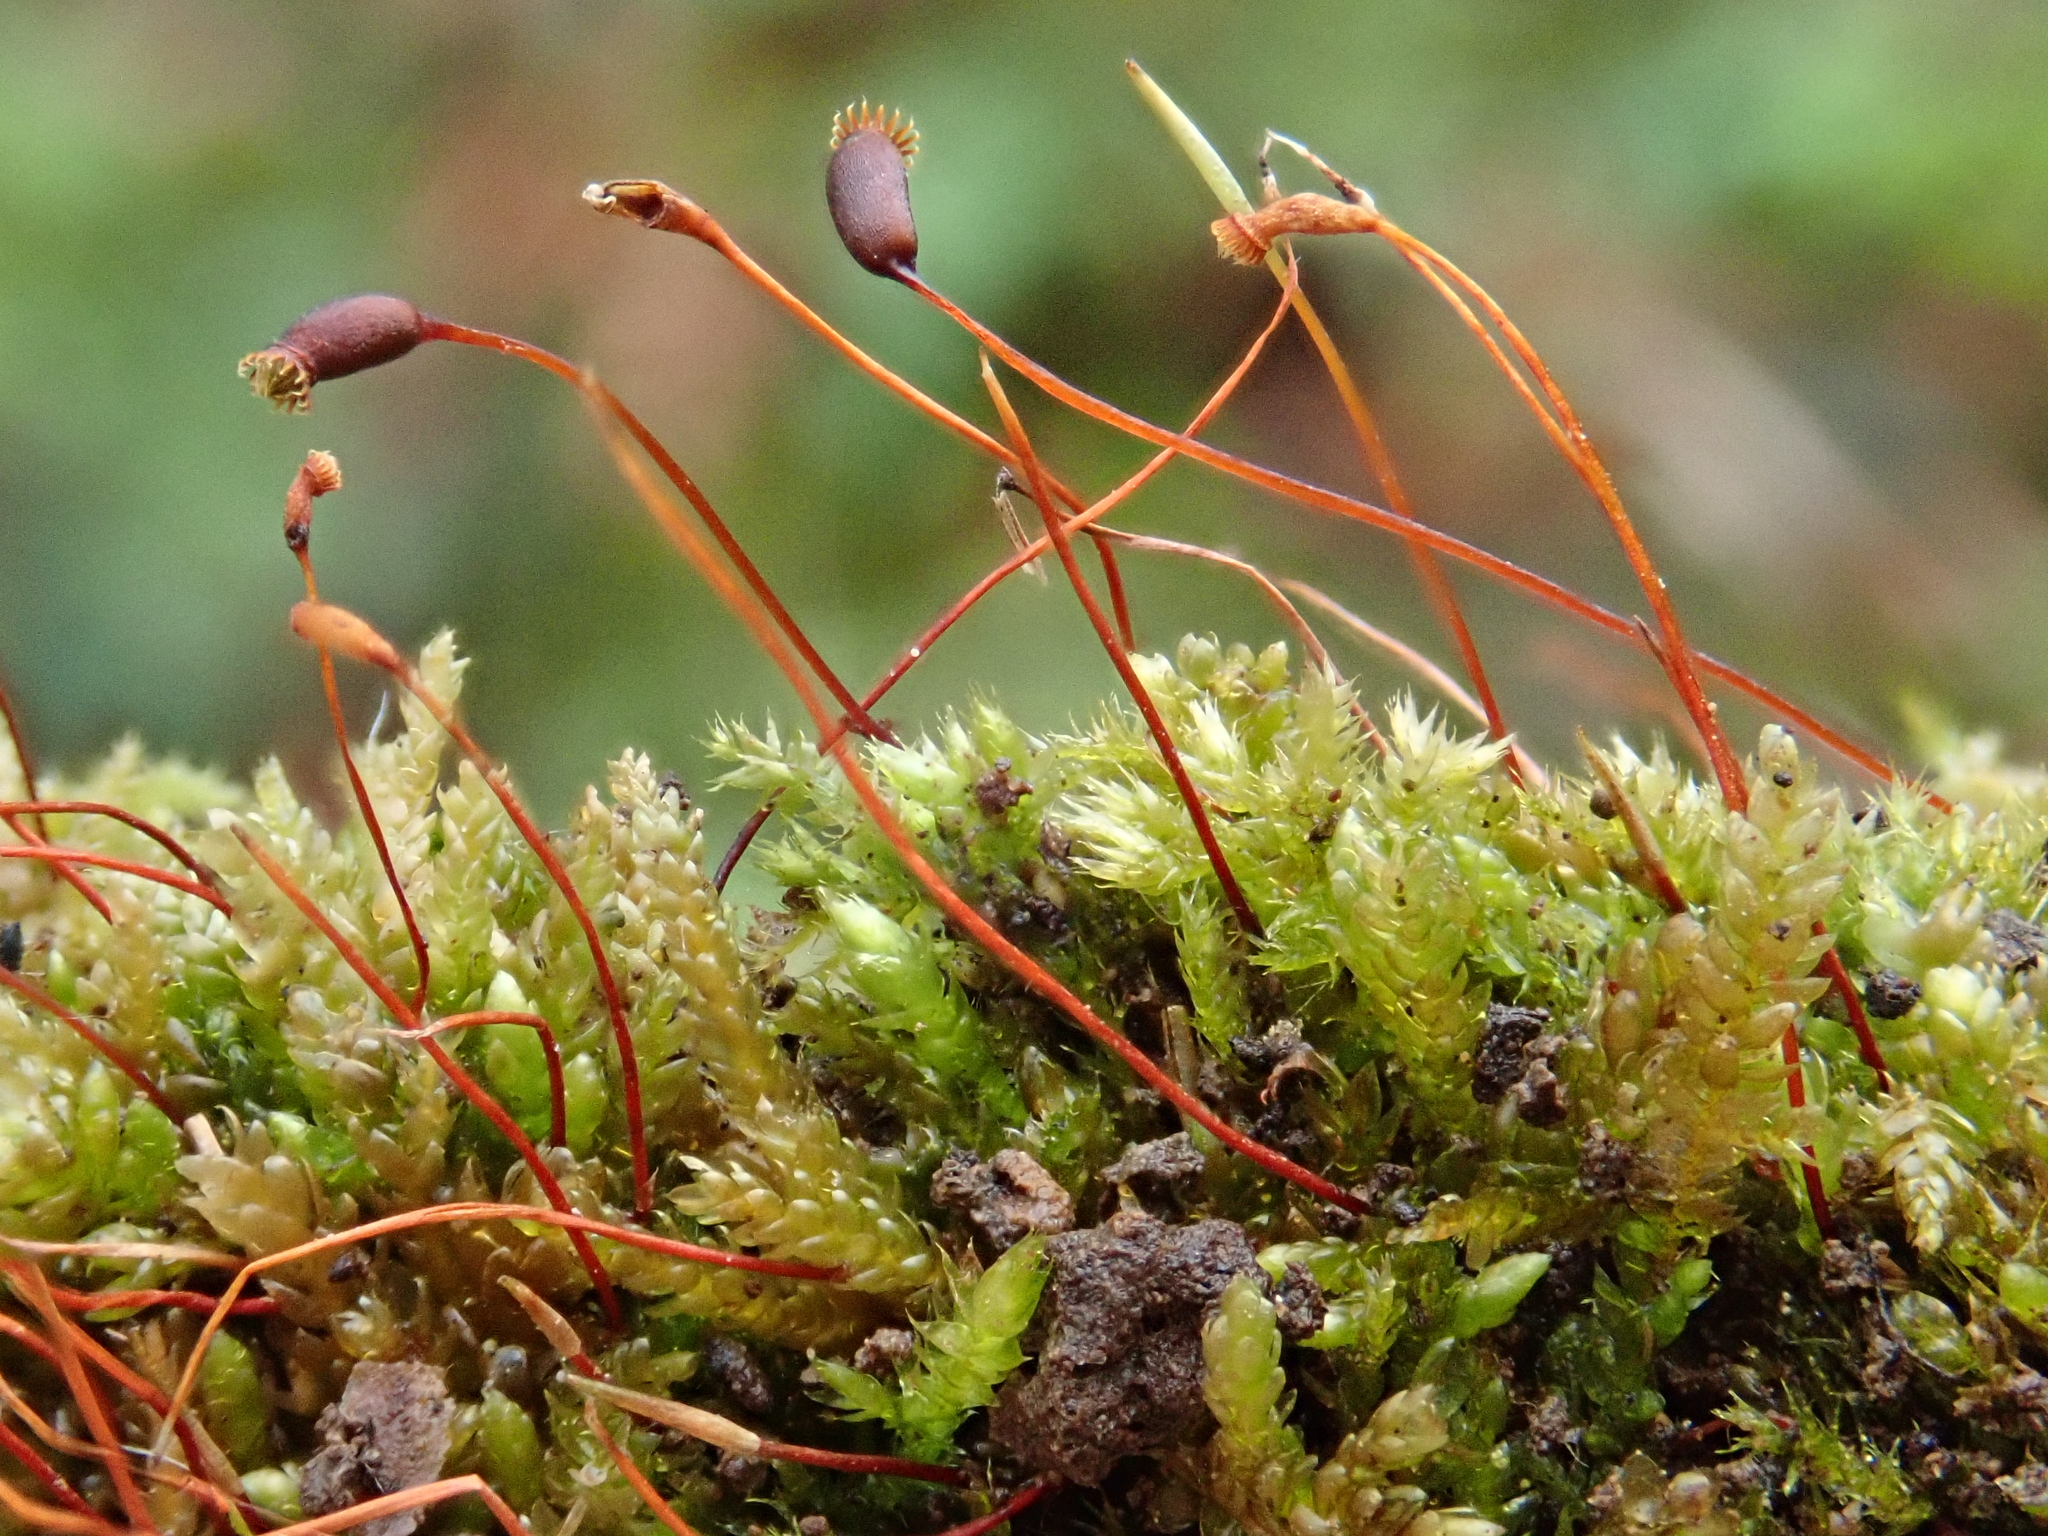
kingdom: Plantae
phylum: Bryophyta
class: Bryopsida
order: Hypnales
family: Brachytheciaceae
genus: Rhynchostegium
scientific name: Rhynchostegium murale
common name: Wall feather-moss
